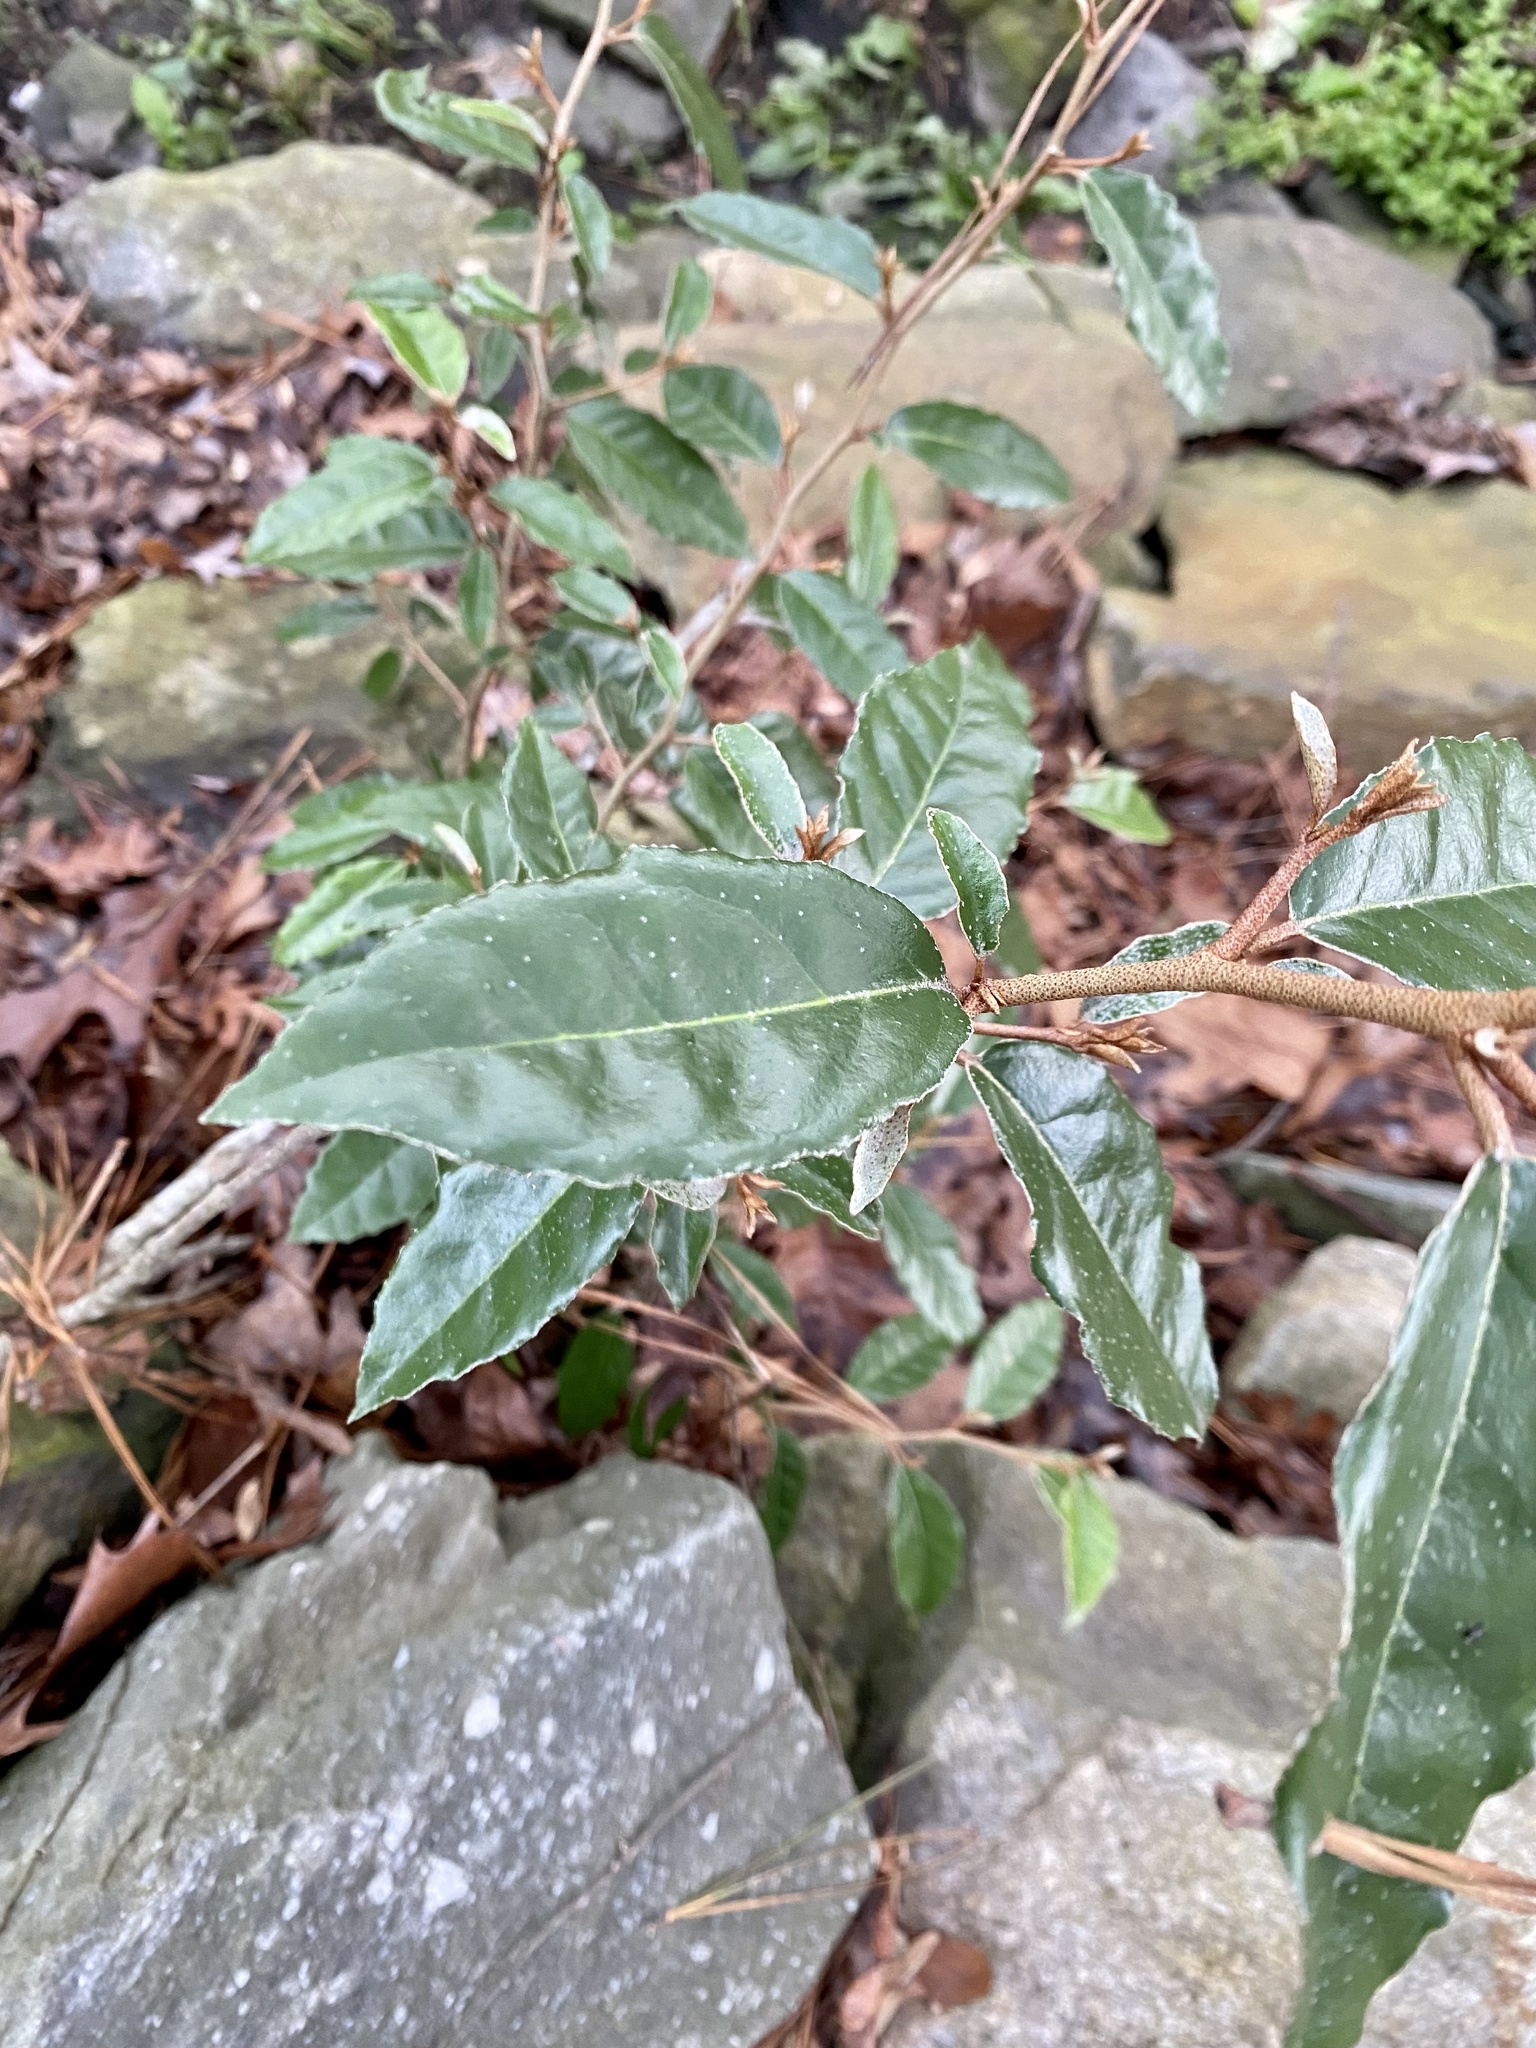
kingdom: Plantae
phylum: Tracheophyta
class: Magnoliopsida
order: Rosales
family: Elaeagnaceae
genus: Elaeagnus
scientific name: Elaeagnus pungens
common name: Spiny oleaster
